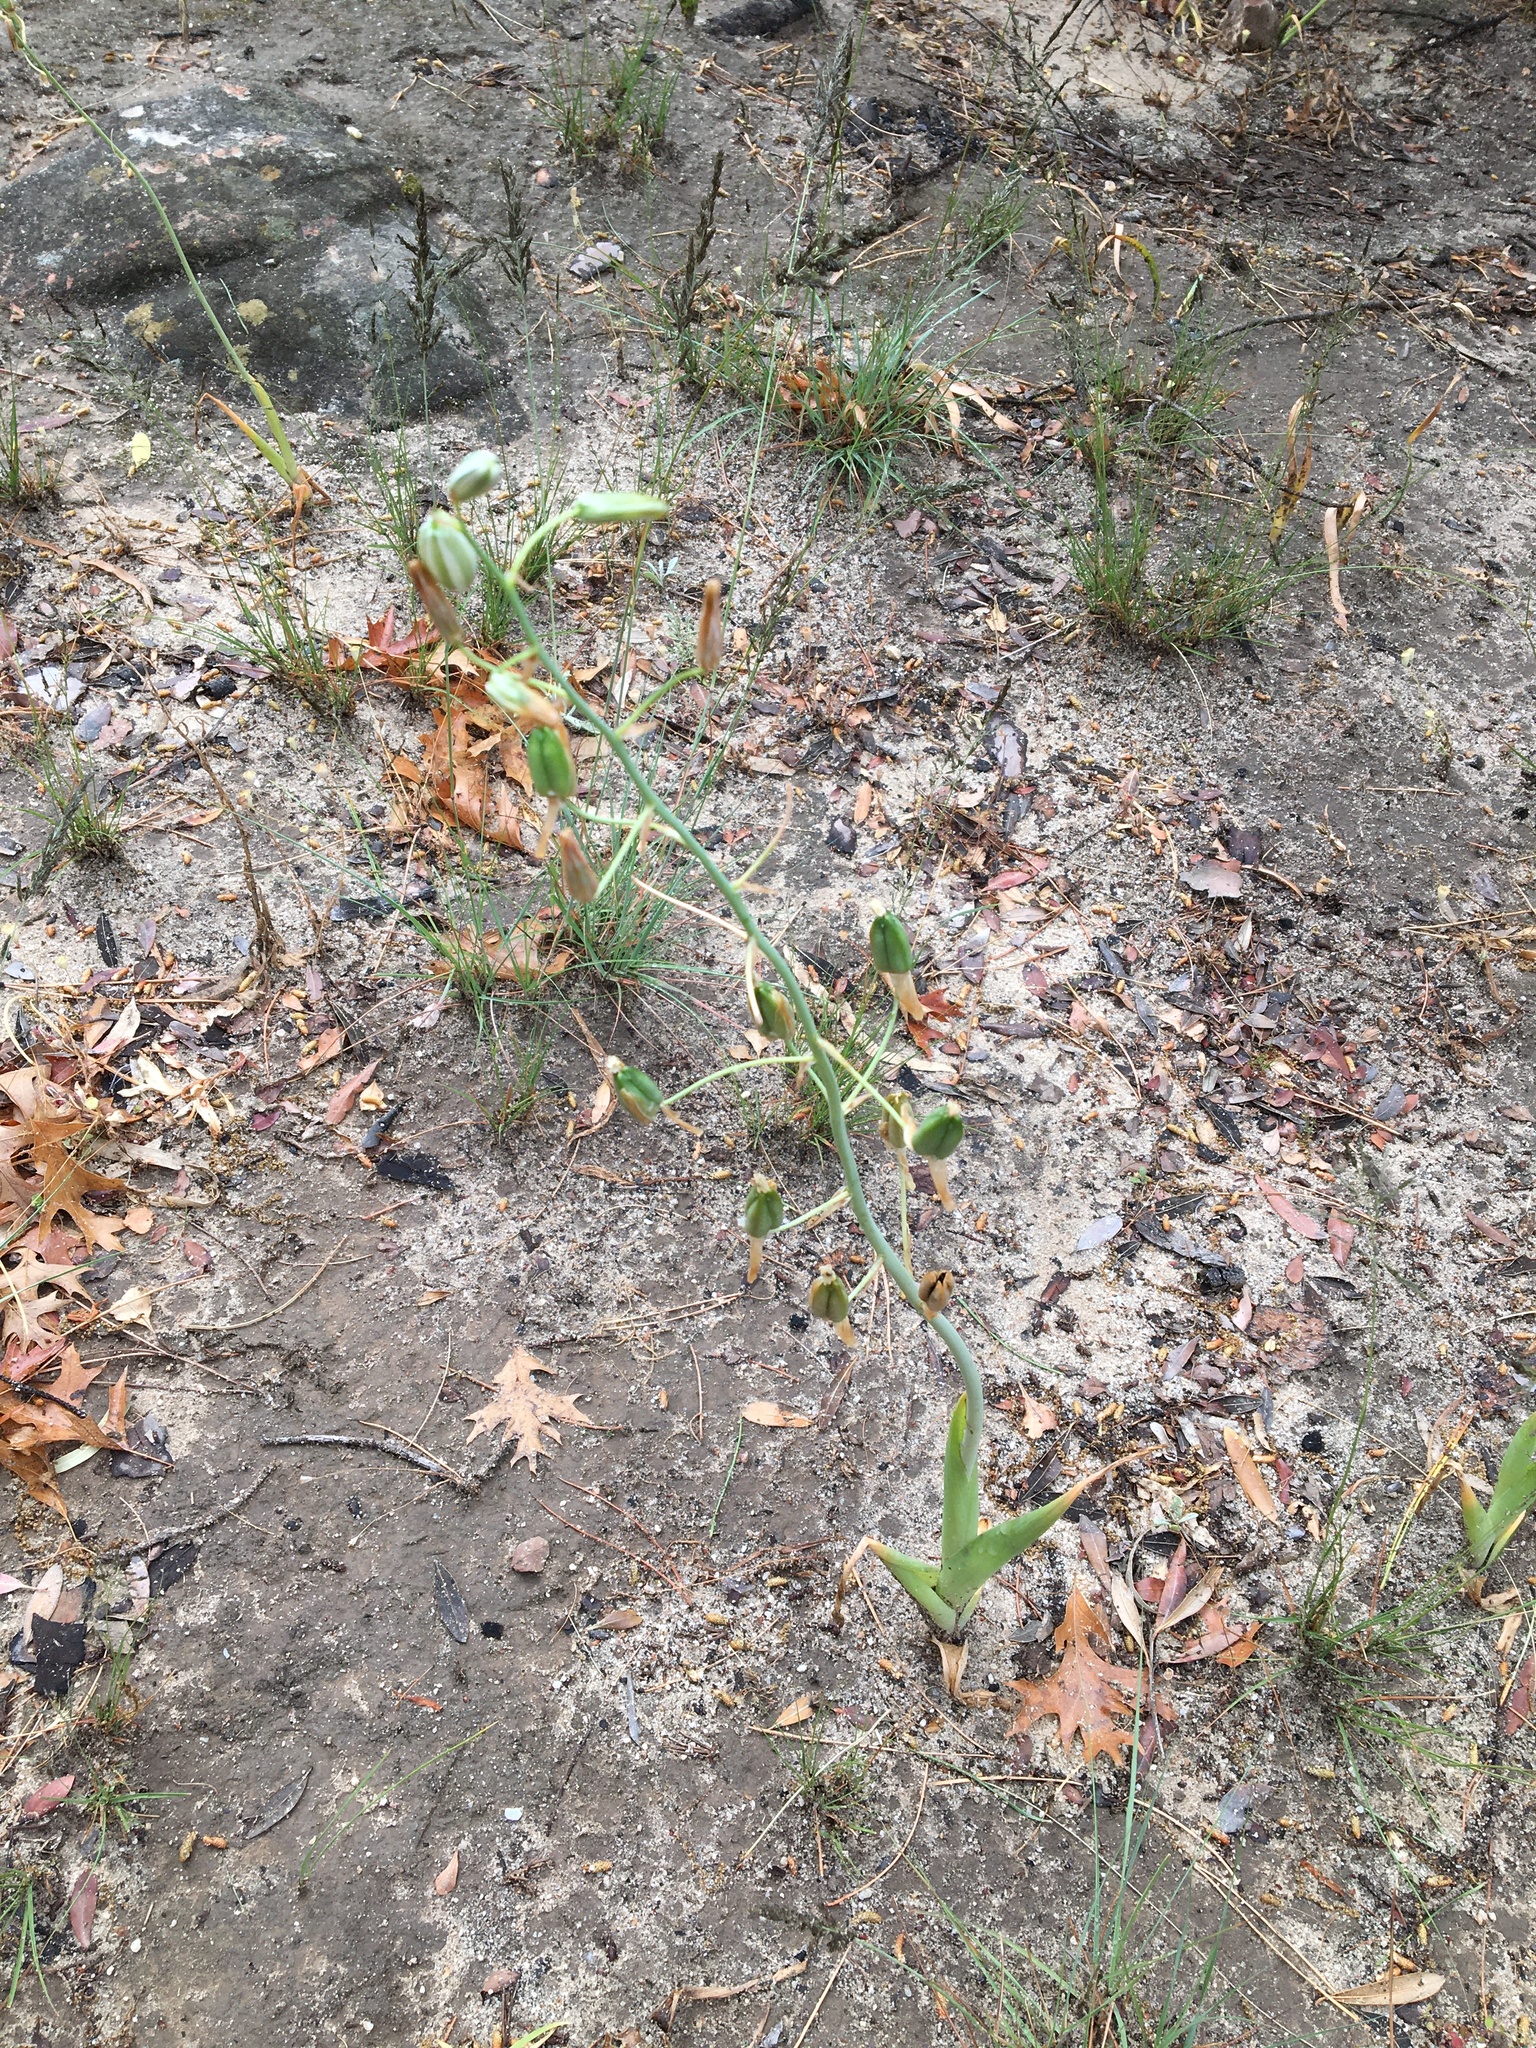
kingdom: Plantae
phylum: Tracheophyta
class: Liliopsida
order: Asparagales
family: Asparagaceae
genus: Albuca
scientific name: Albuca canadensis
